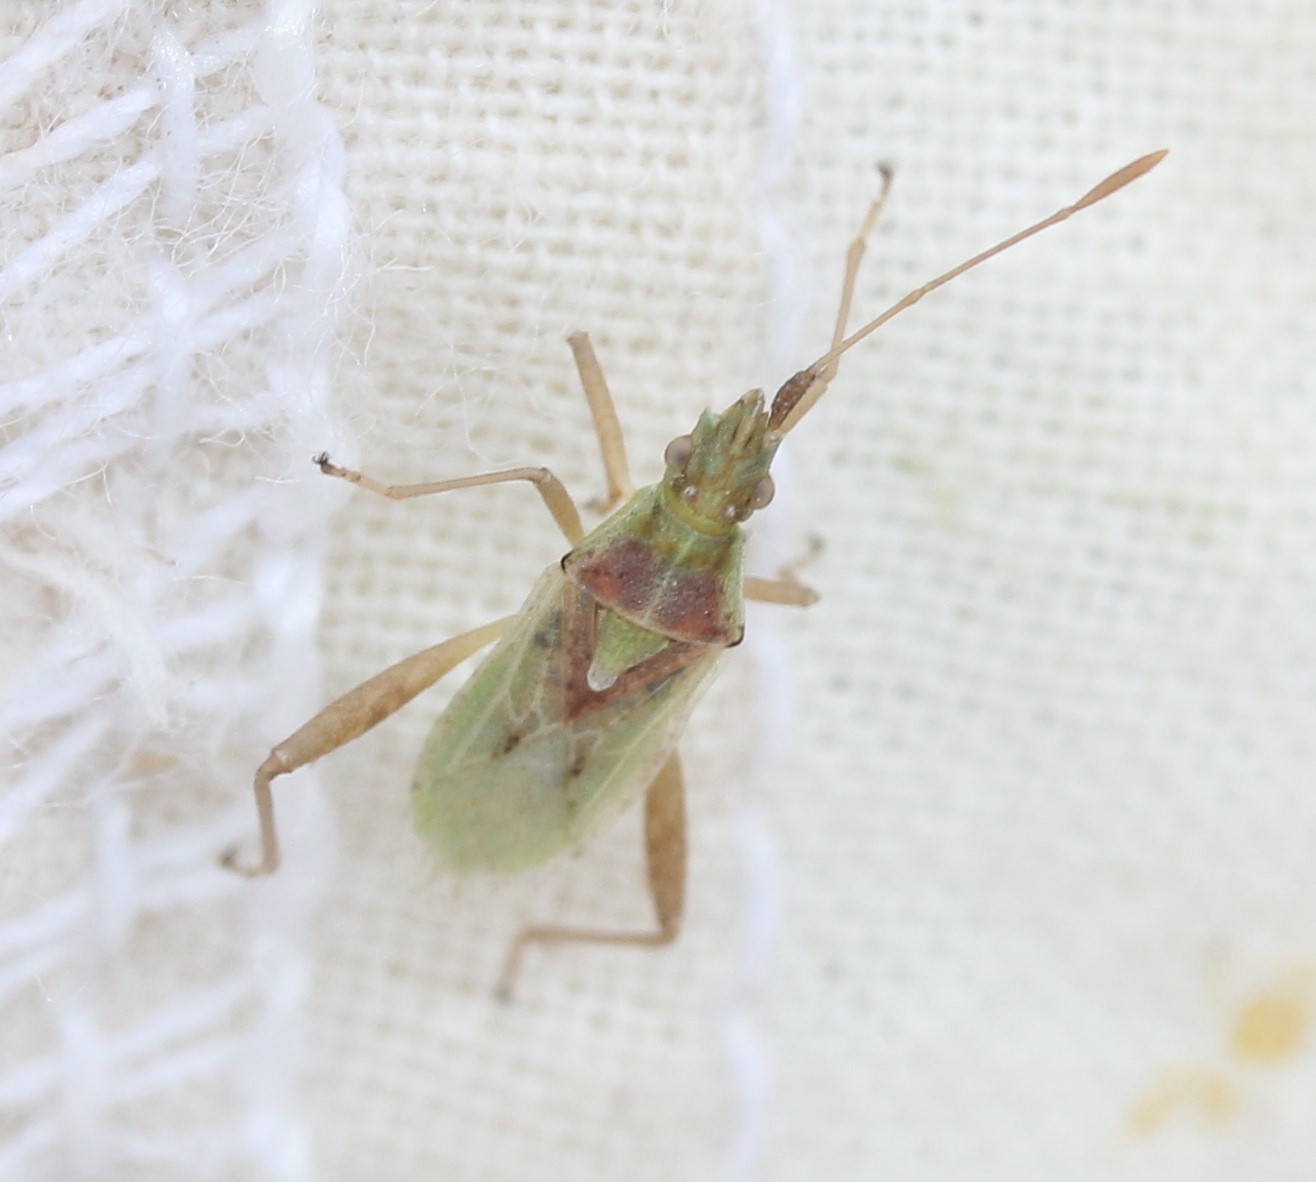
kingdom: Animalia
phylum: Arthropoda
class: Insecta
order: Hemiptera
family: Rhopalidae
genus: Harmostes
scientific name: Harmostes reflexulus
